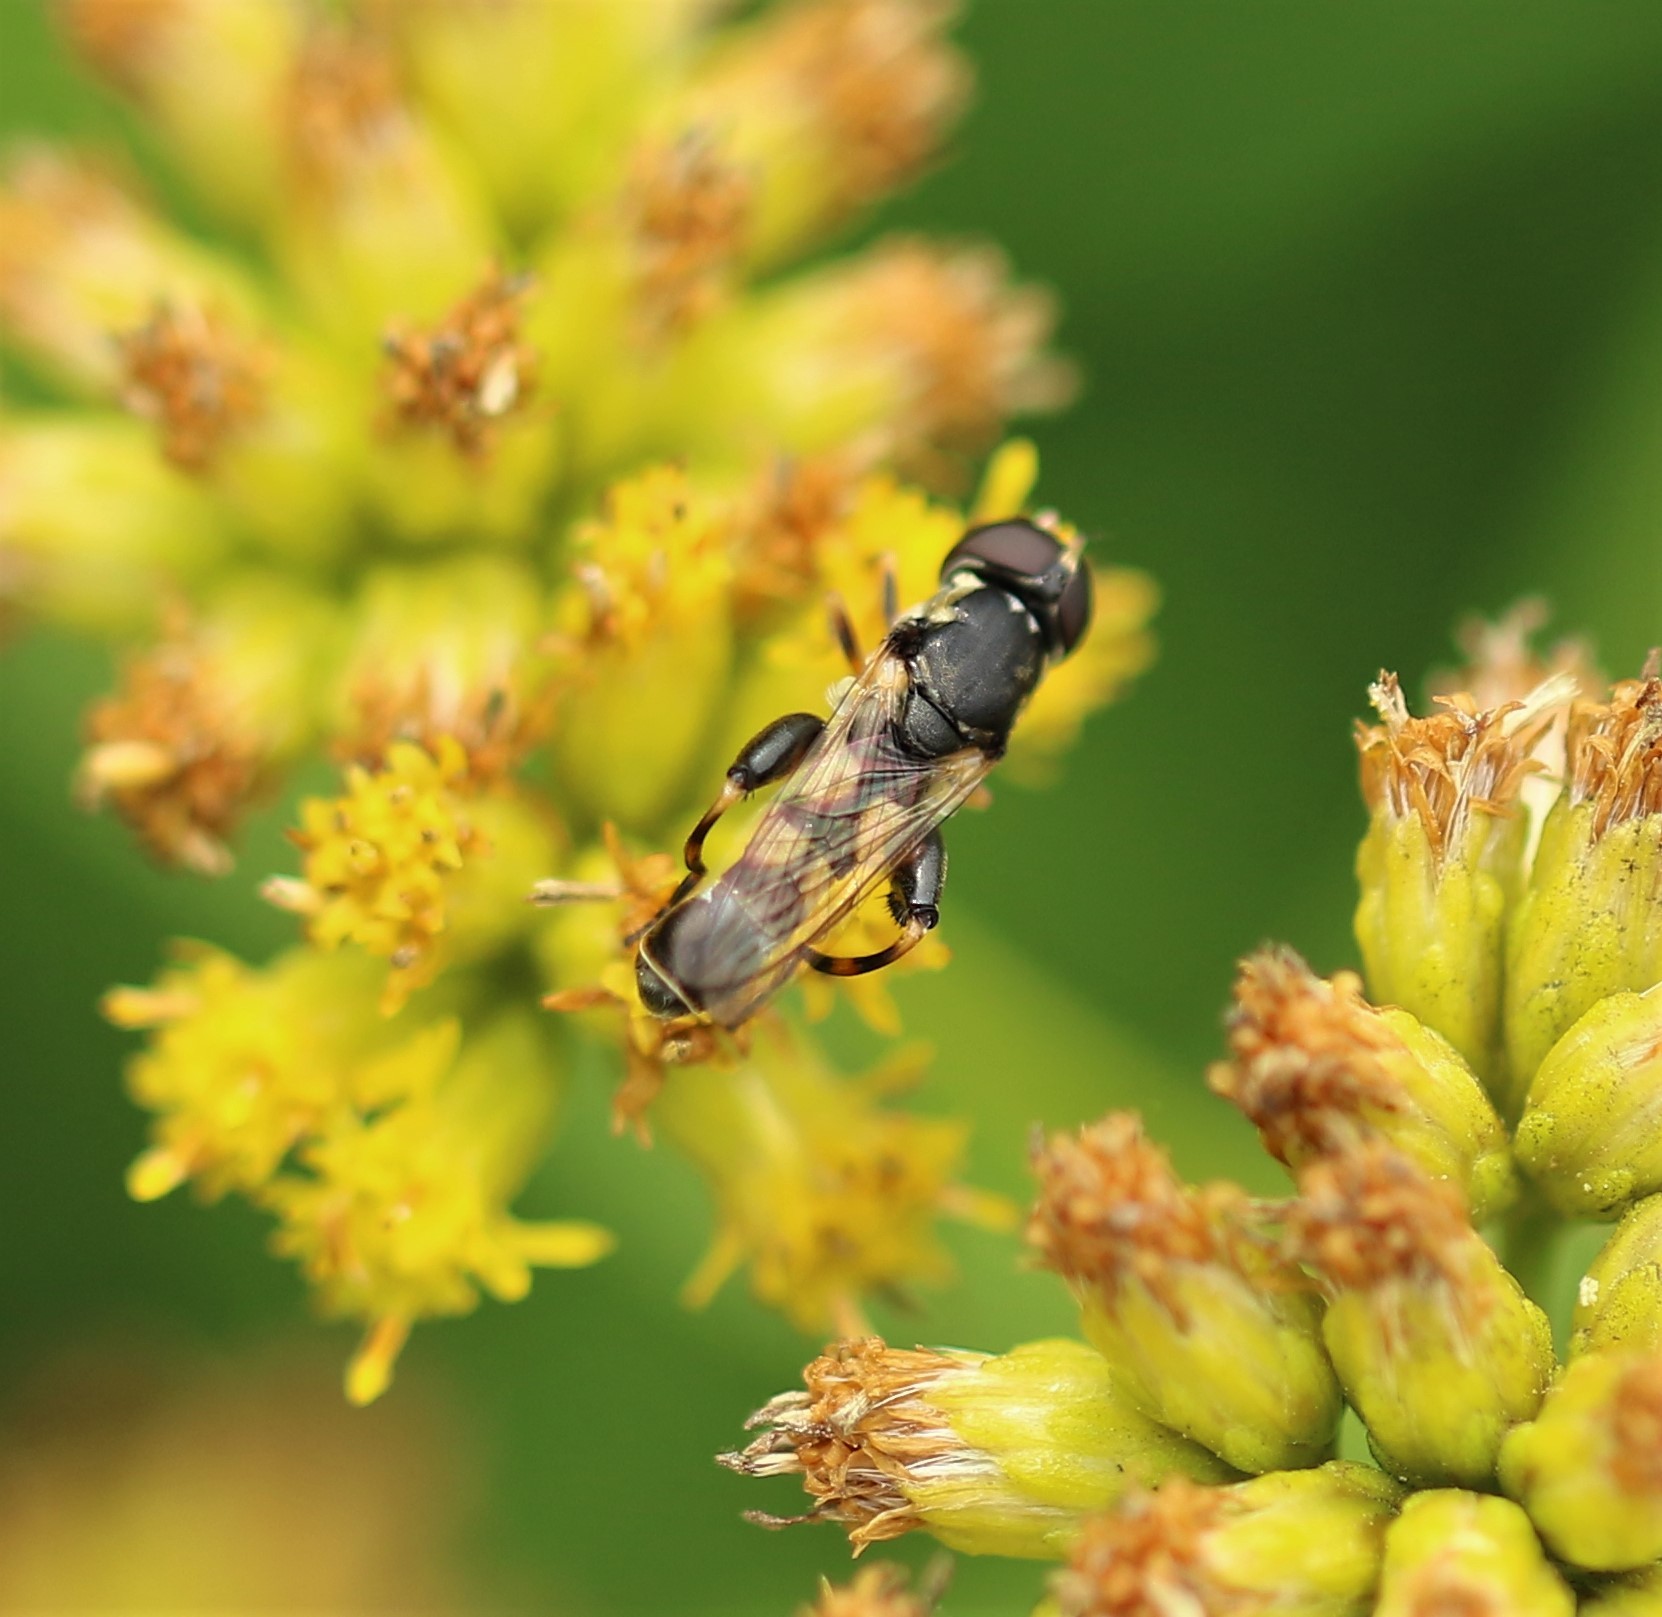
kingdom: Animalia
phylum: Arthropoda
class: Insecta
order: Diptera
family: Syrphidae
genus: Syritta
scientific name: Syritta pipiens
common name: Hover fly
